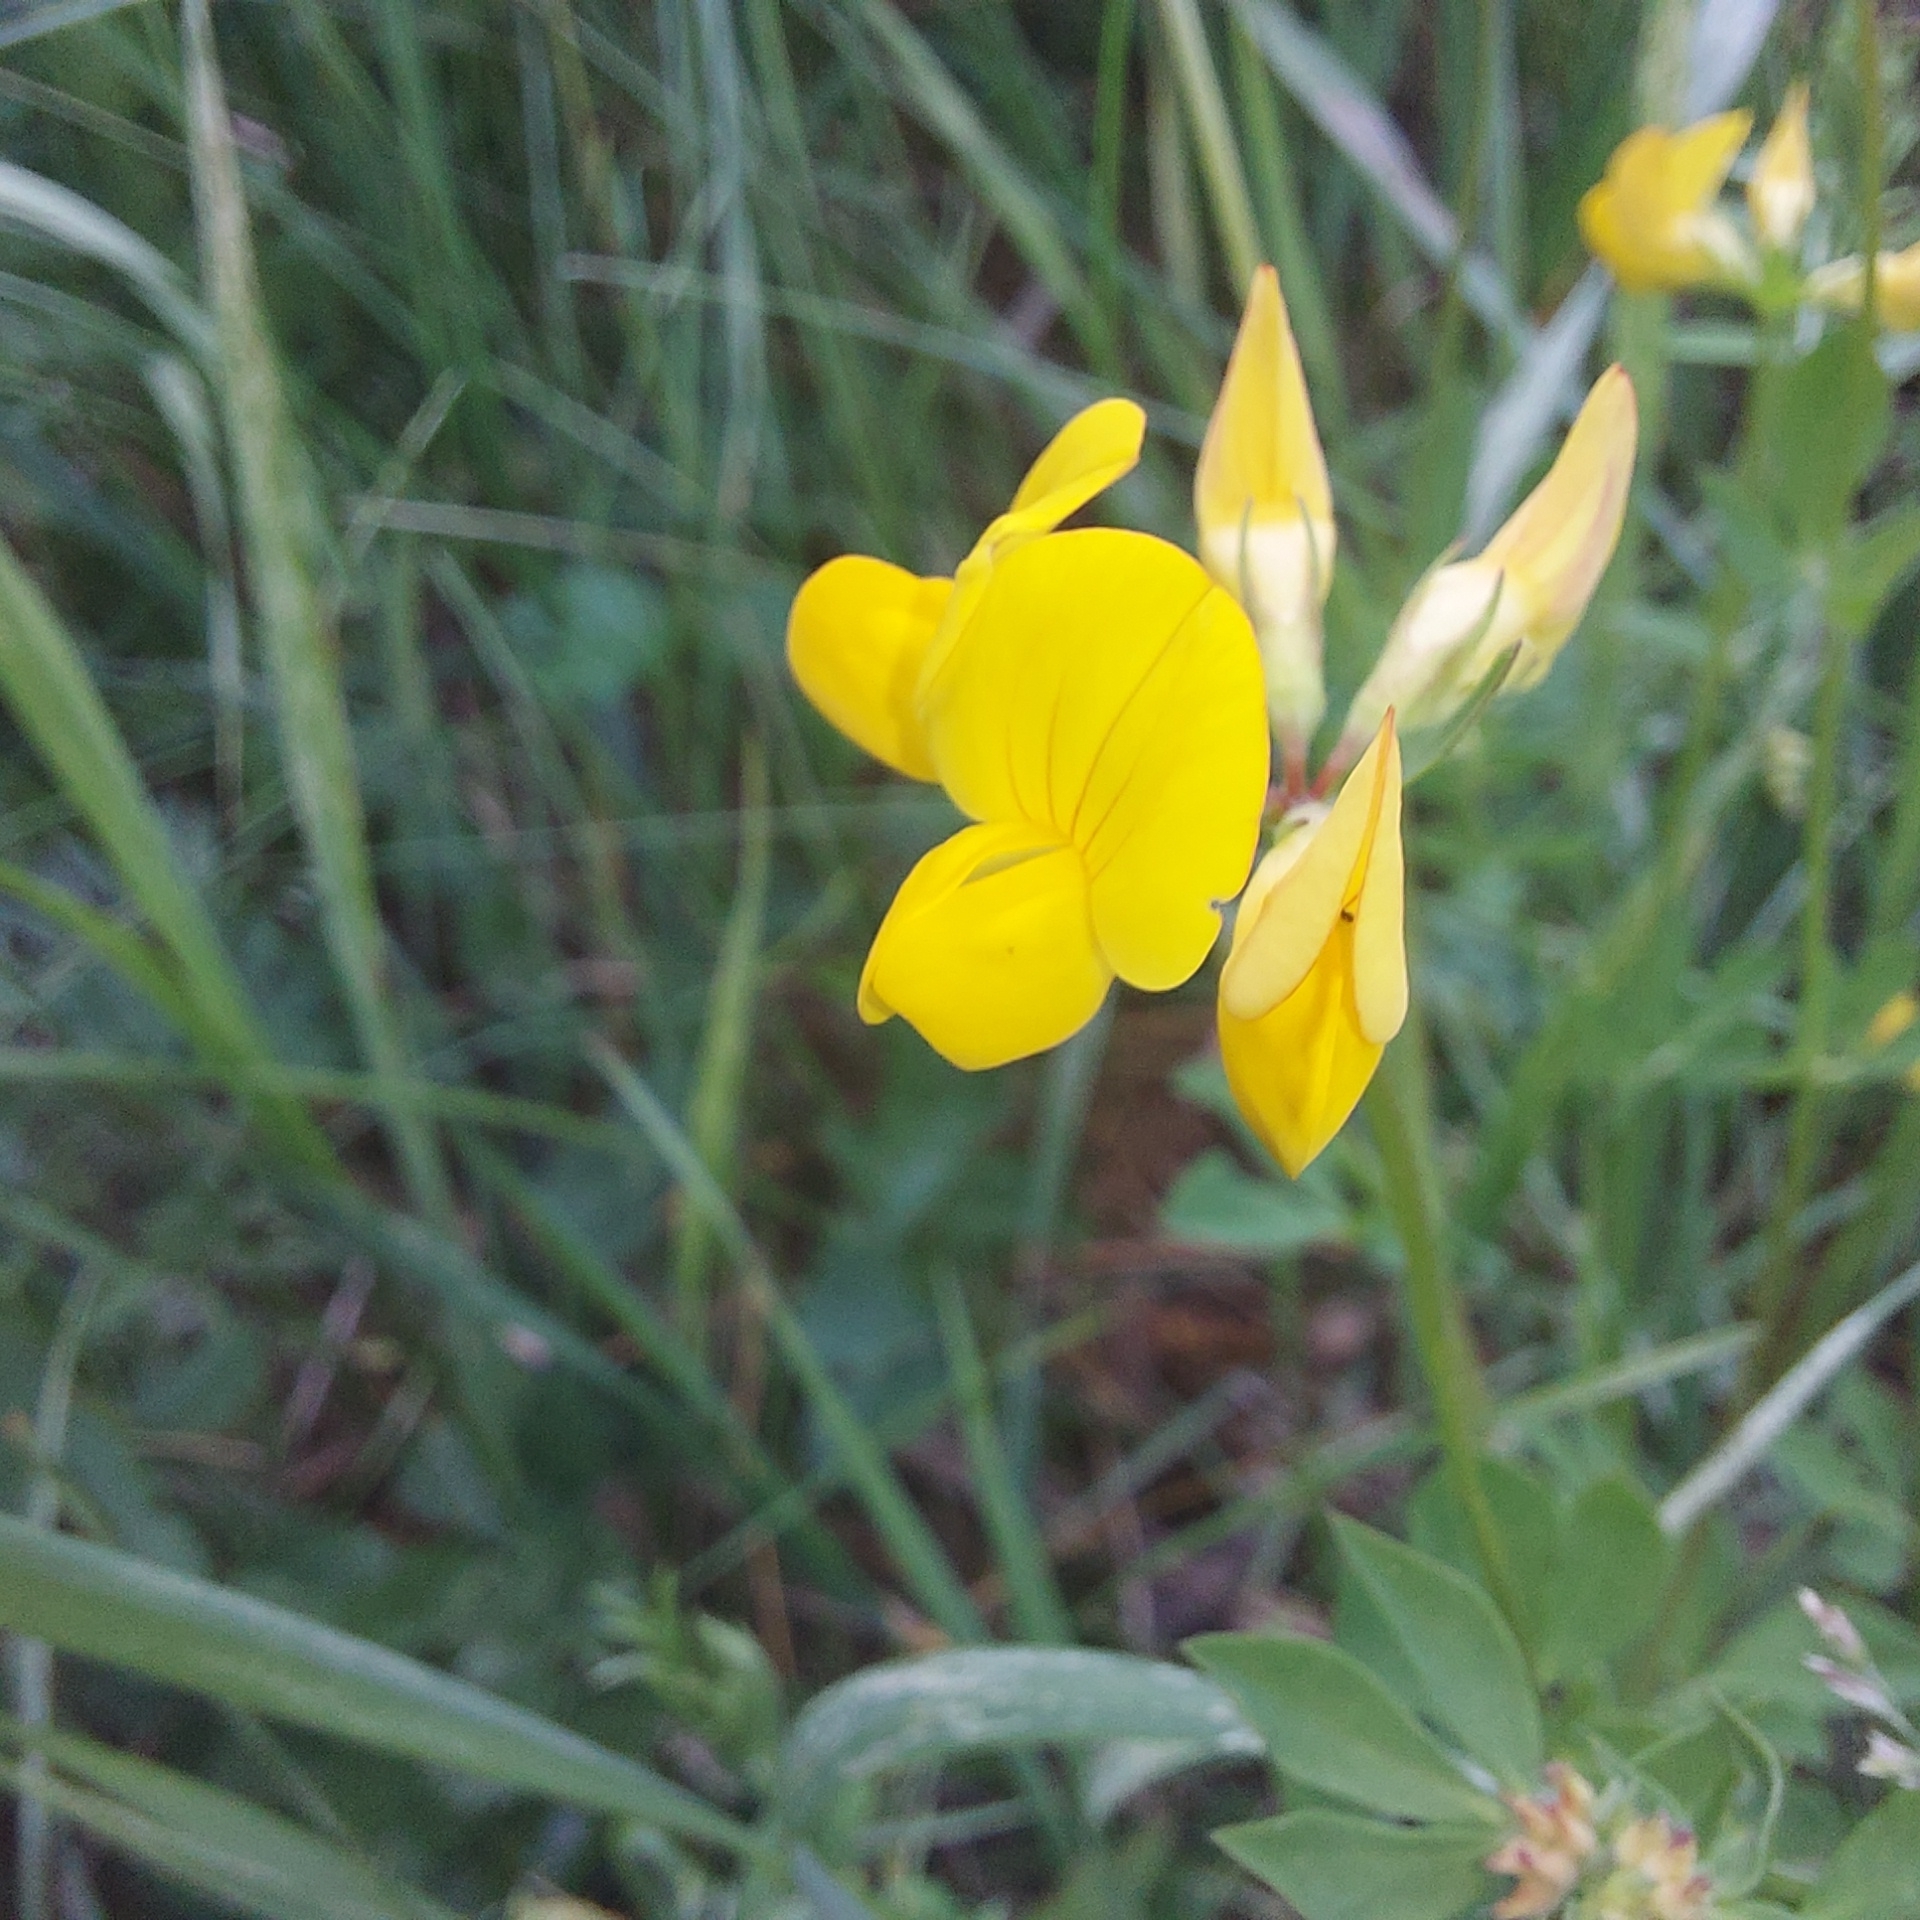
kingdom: Plantae
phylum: Tracheophyta
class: Magnoliopsida
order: Fabales
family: Fabaceae
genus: Lotus
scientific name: Lotus corniculatus
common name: Common bird's-foot-trefoil
